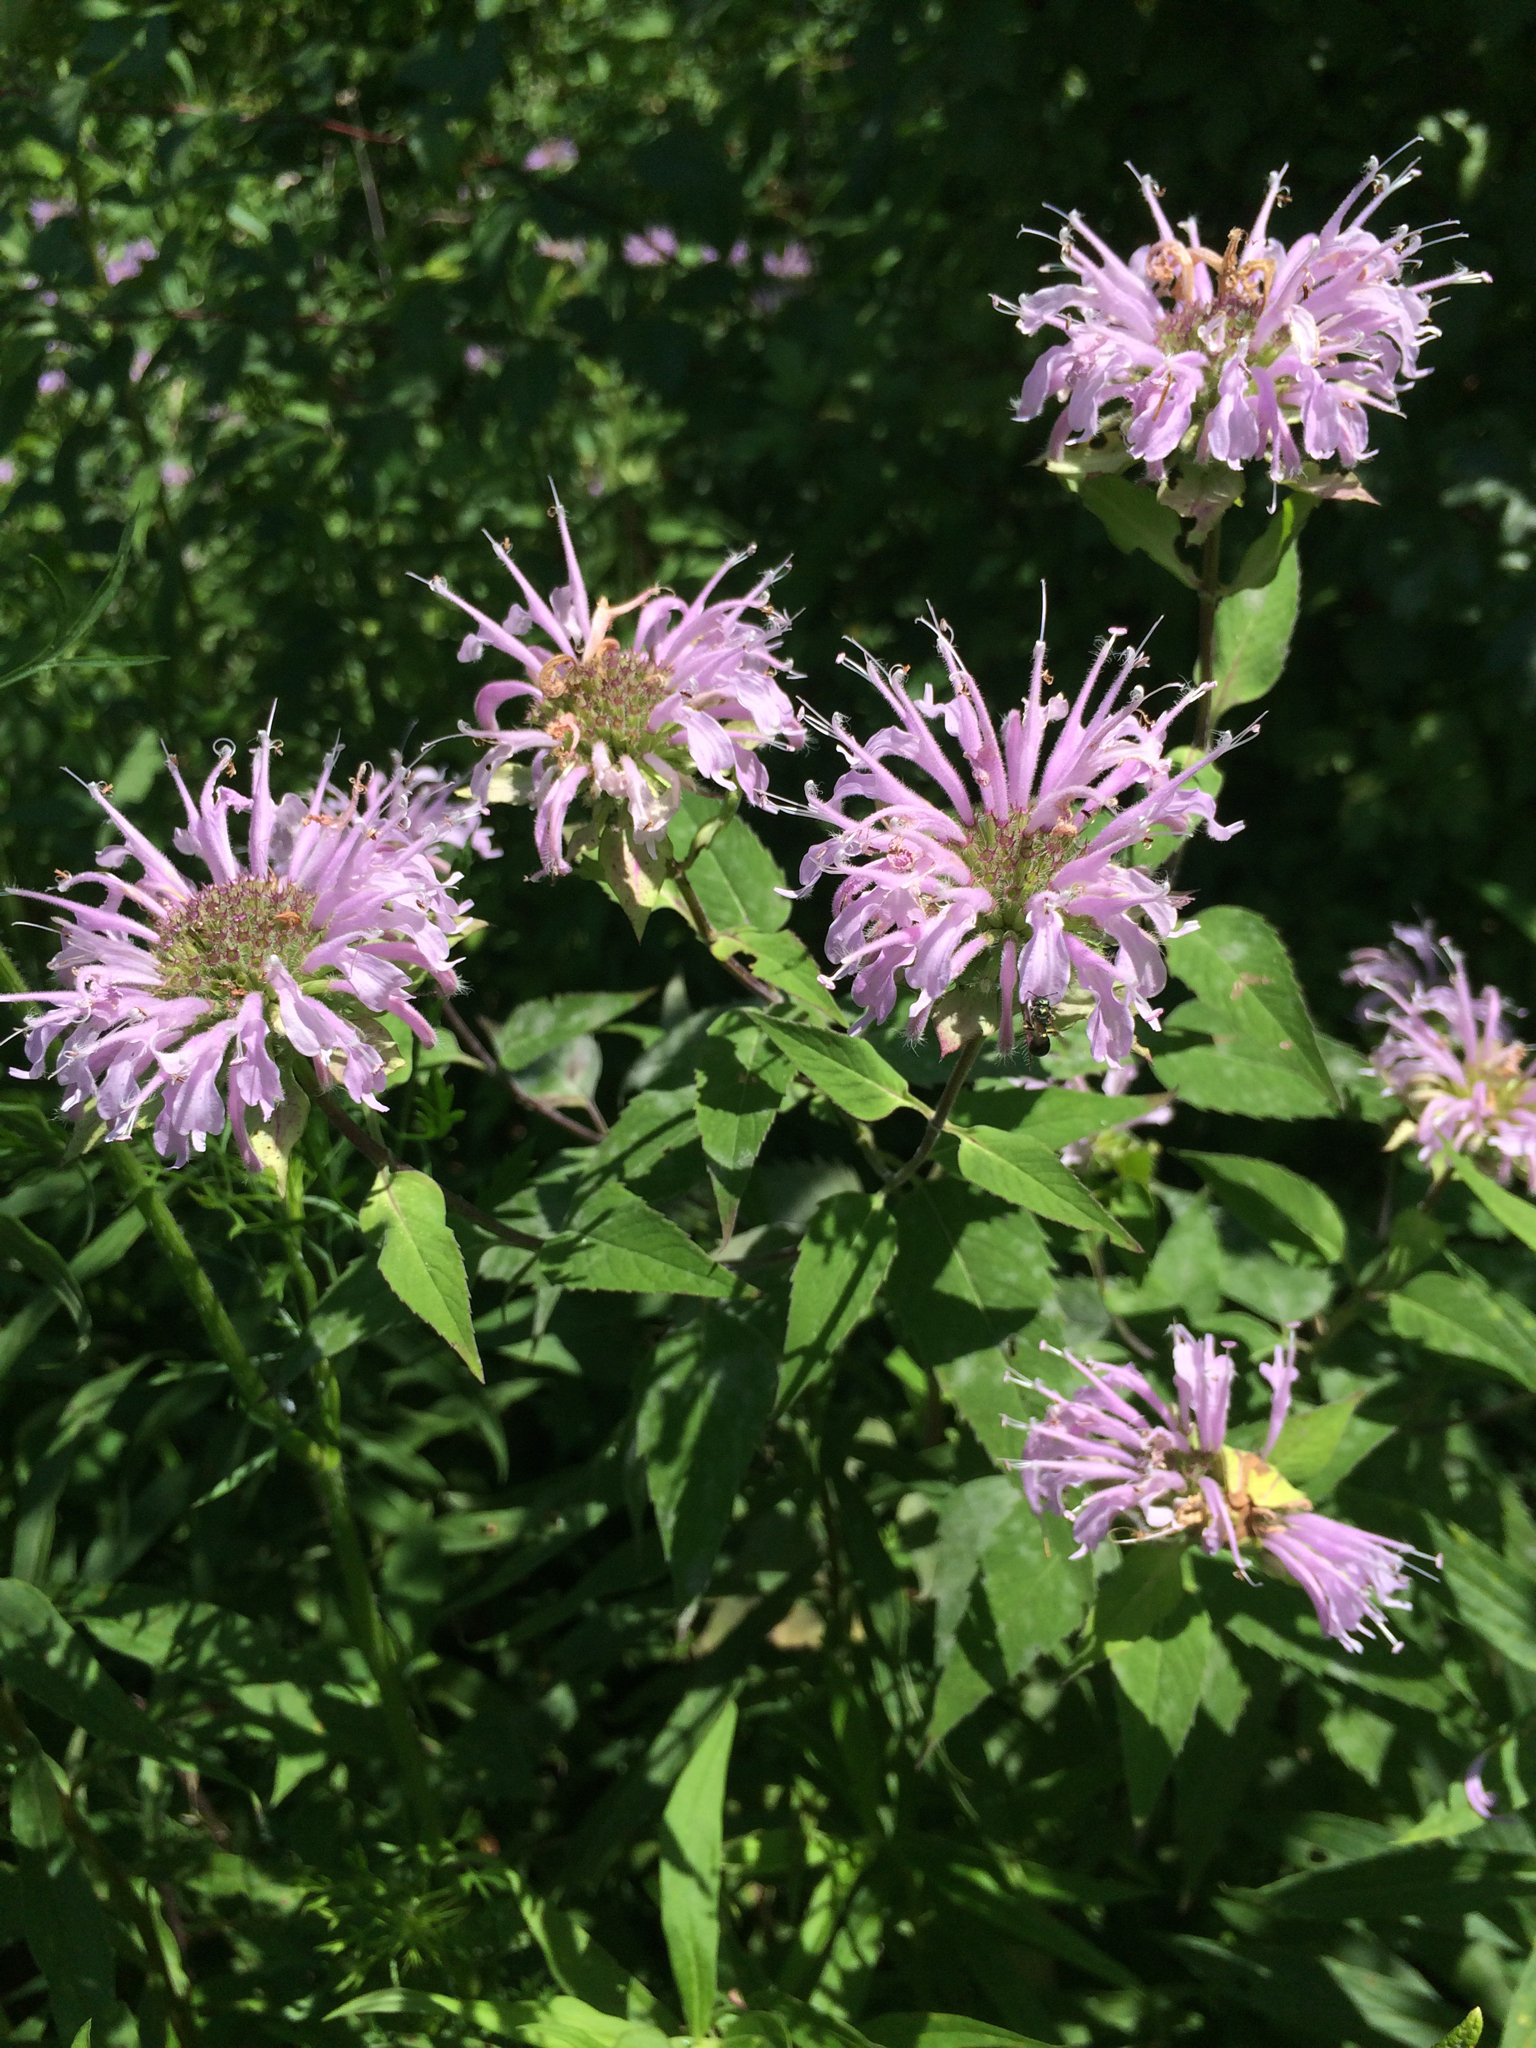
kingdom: Plantae
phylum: Tracheophyta
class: Magnoliopsida
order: Lamiales
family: Lamiaceae
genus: Monarda
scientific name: Monarda fistulosa
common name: Purple beebalm
